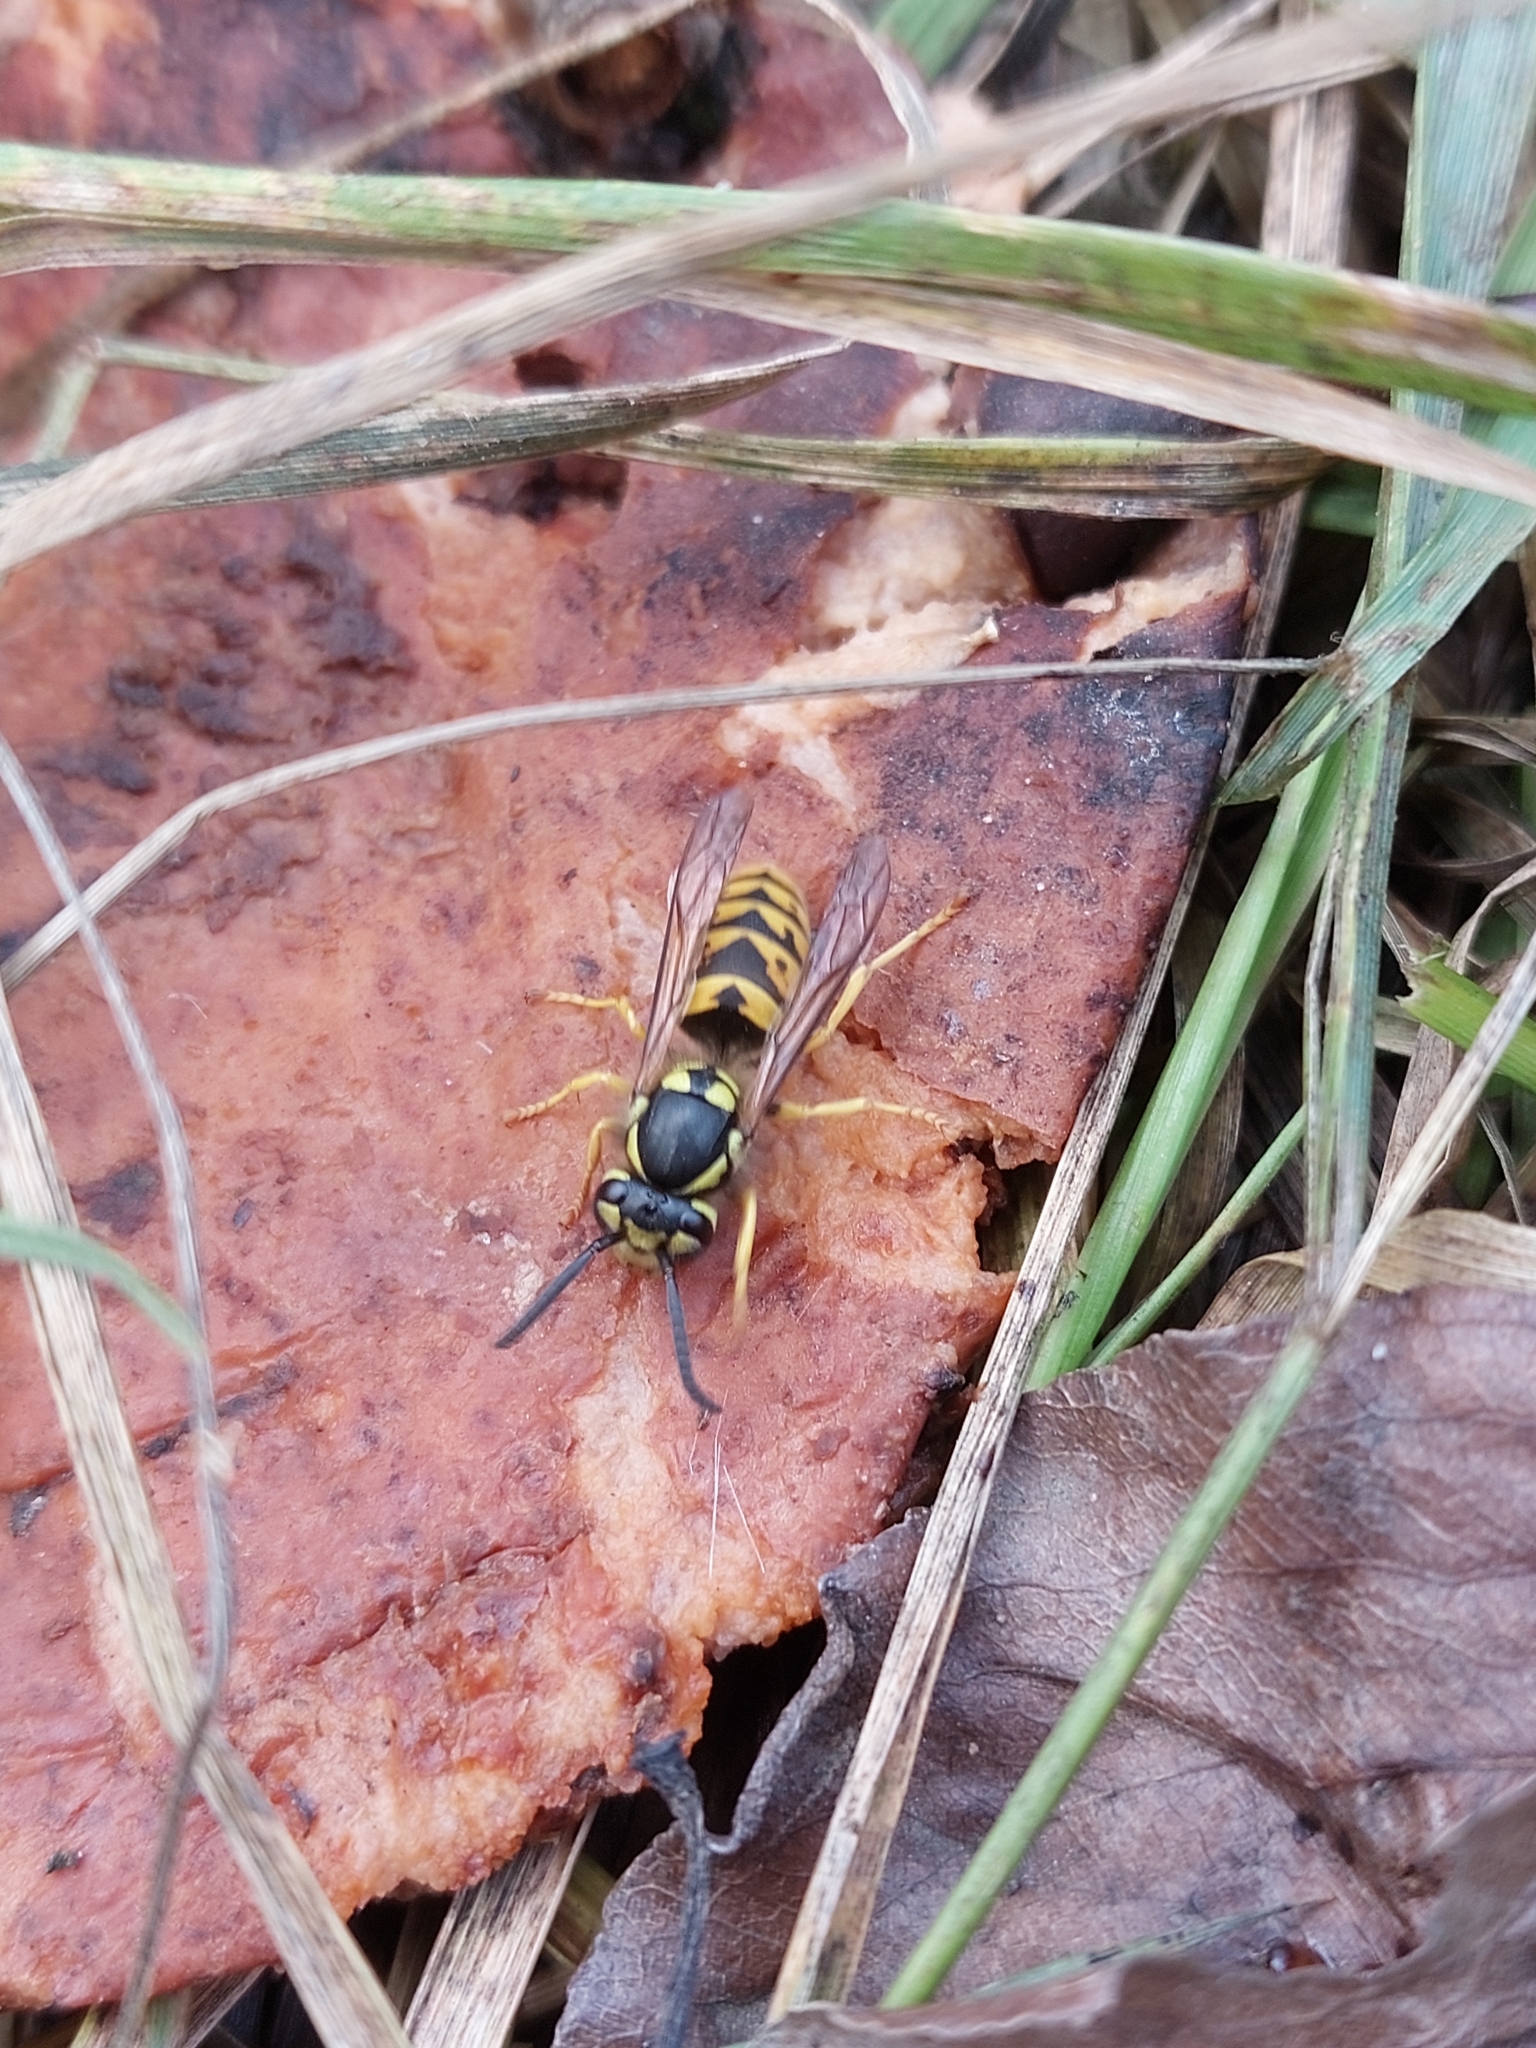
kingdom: Animalia
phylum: Arthropoda
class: Insecta
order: Hymenoptera
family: Vespidae
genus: Vespula
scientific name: Vespula germanica
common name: German wasp
